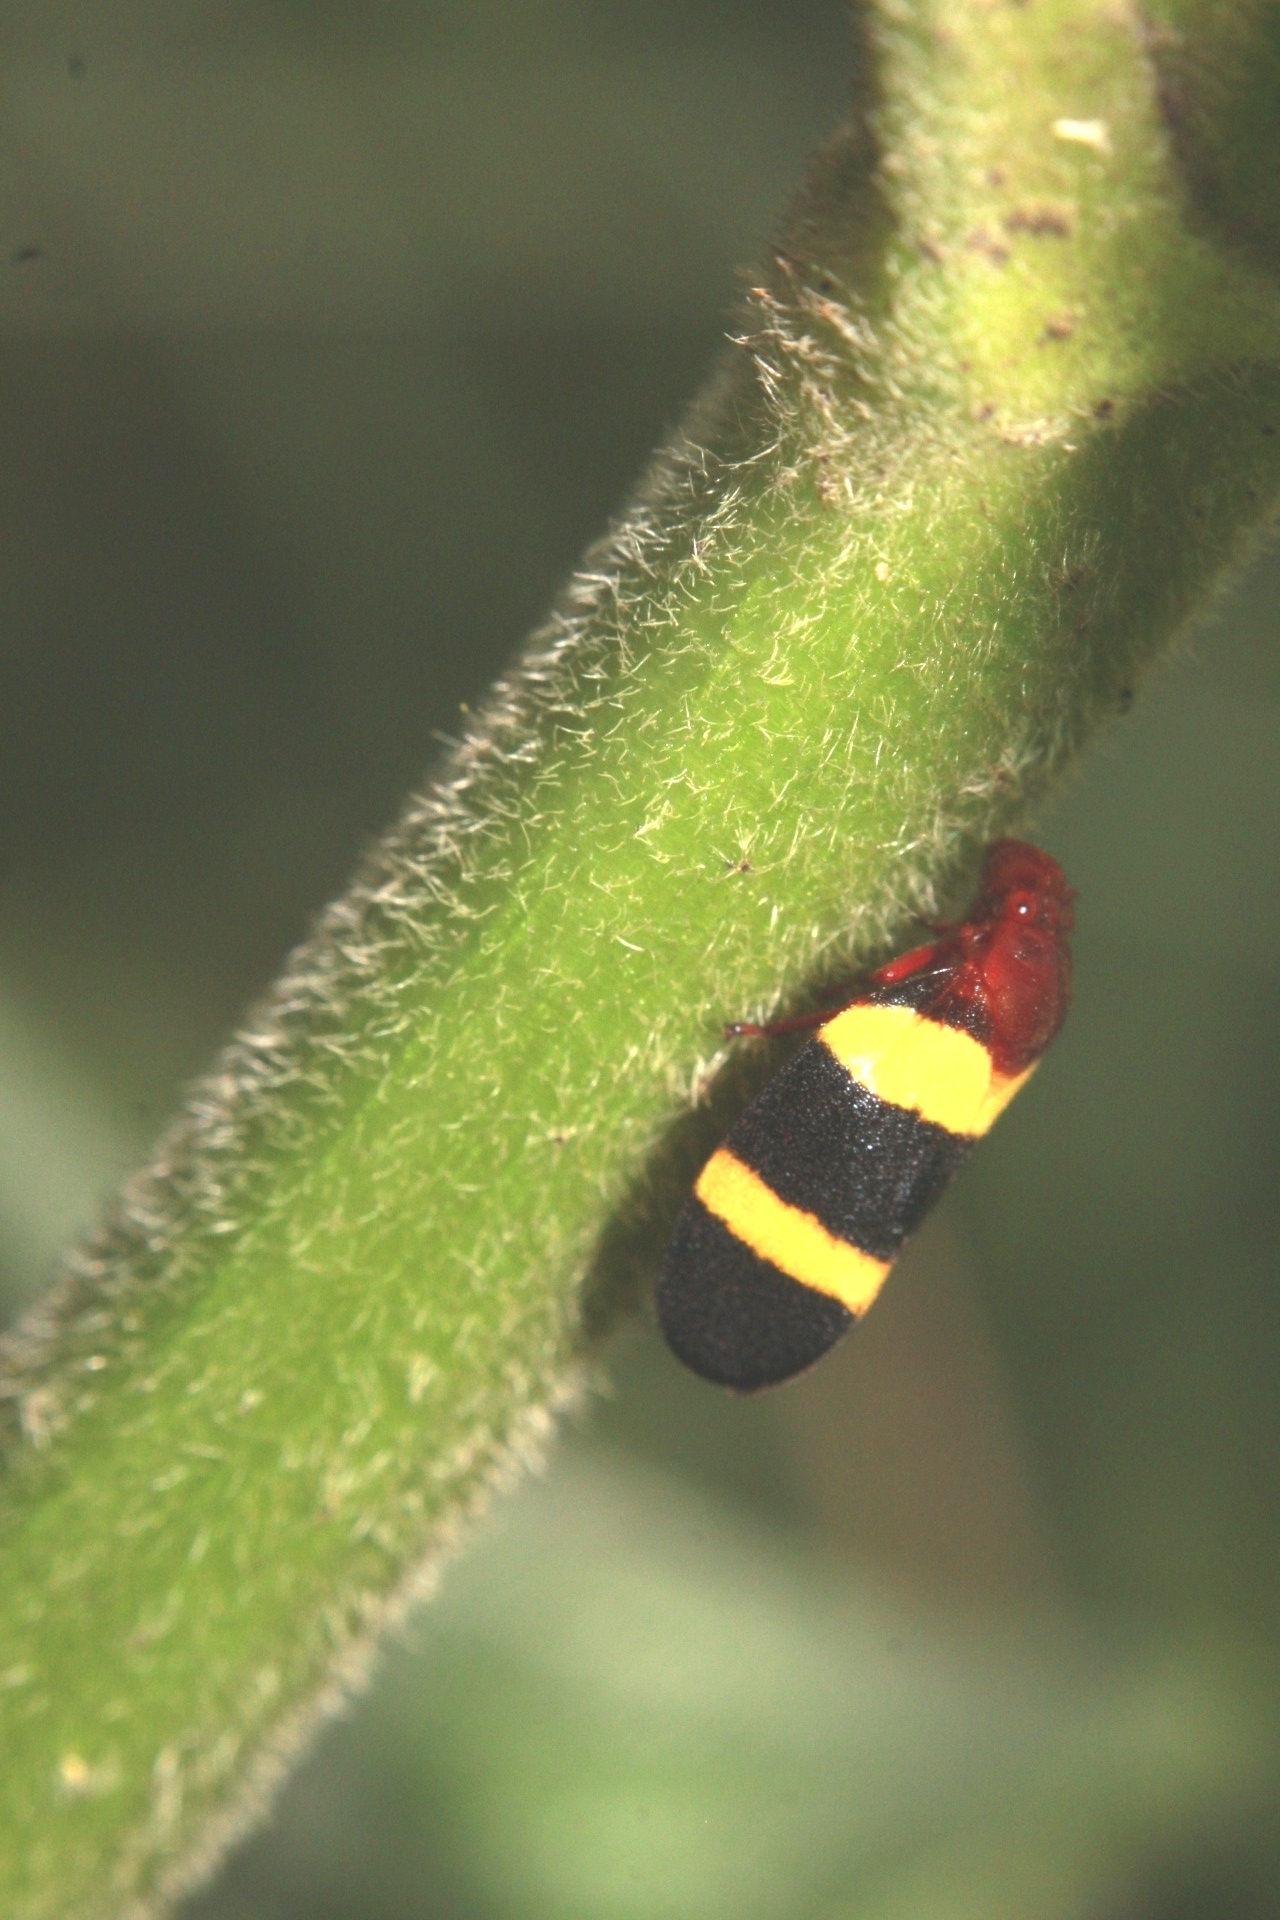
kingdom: Animalia
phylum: Arthropoda
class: Insecta
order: Hemiptera
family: Cercopidae
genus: Sphenorhina
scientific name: Sphenorhina rubra
